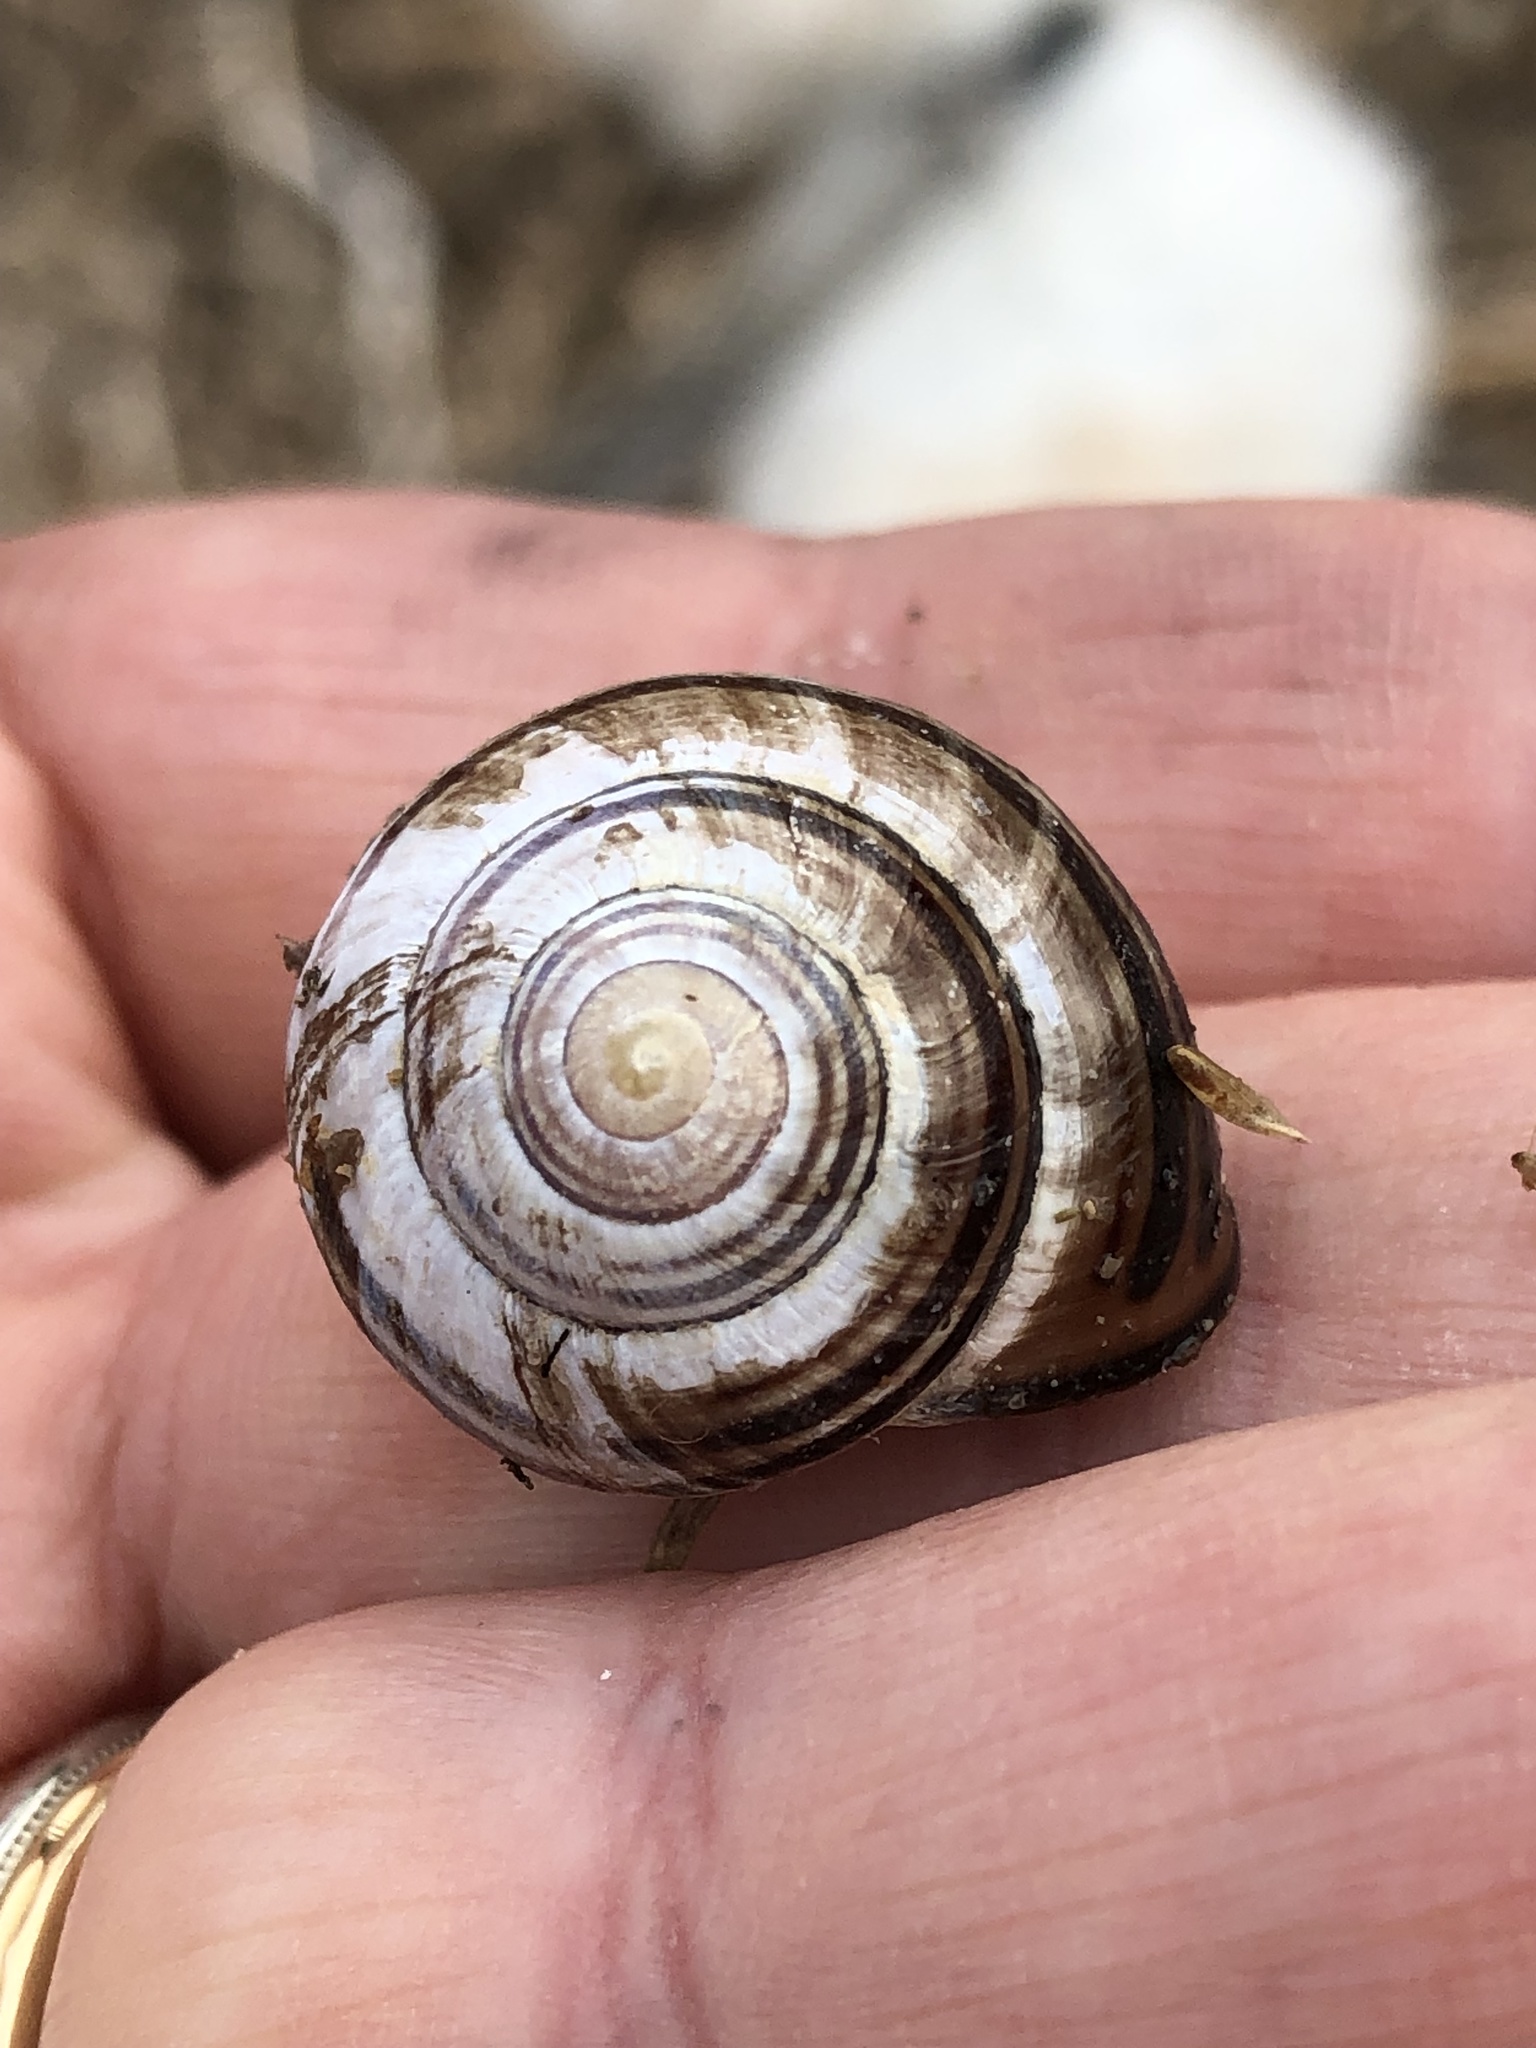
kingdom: Animalia
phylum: Mollusca
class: Gastropoda
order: Stylommatophora
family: Helicidae
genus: Cepaea
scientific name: Cepaea nemoralis
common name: Grovesnail
